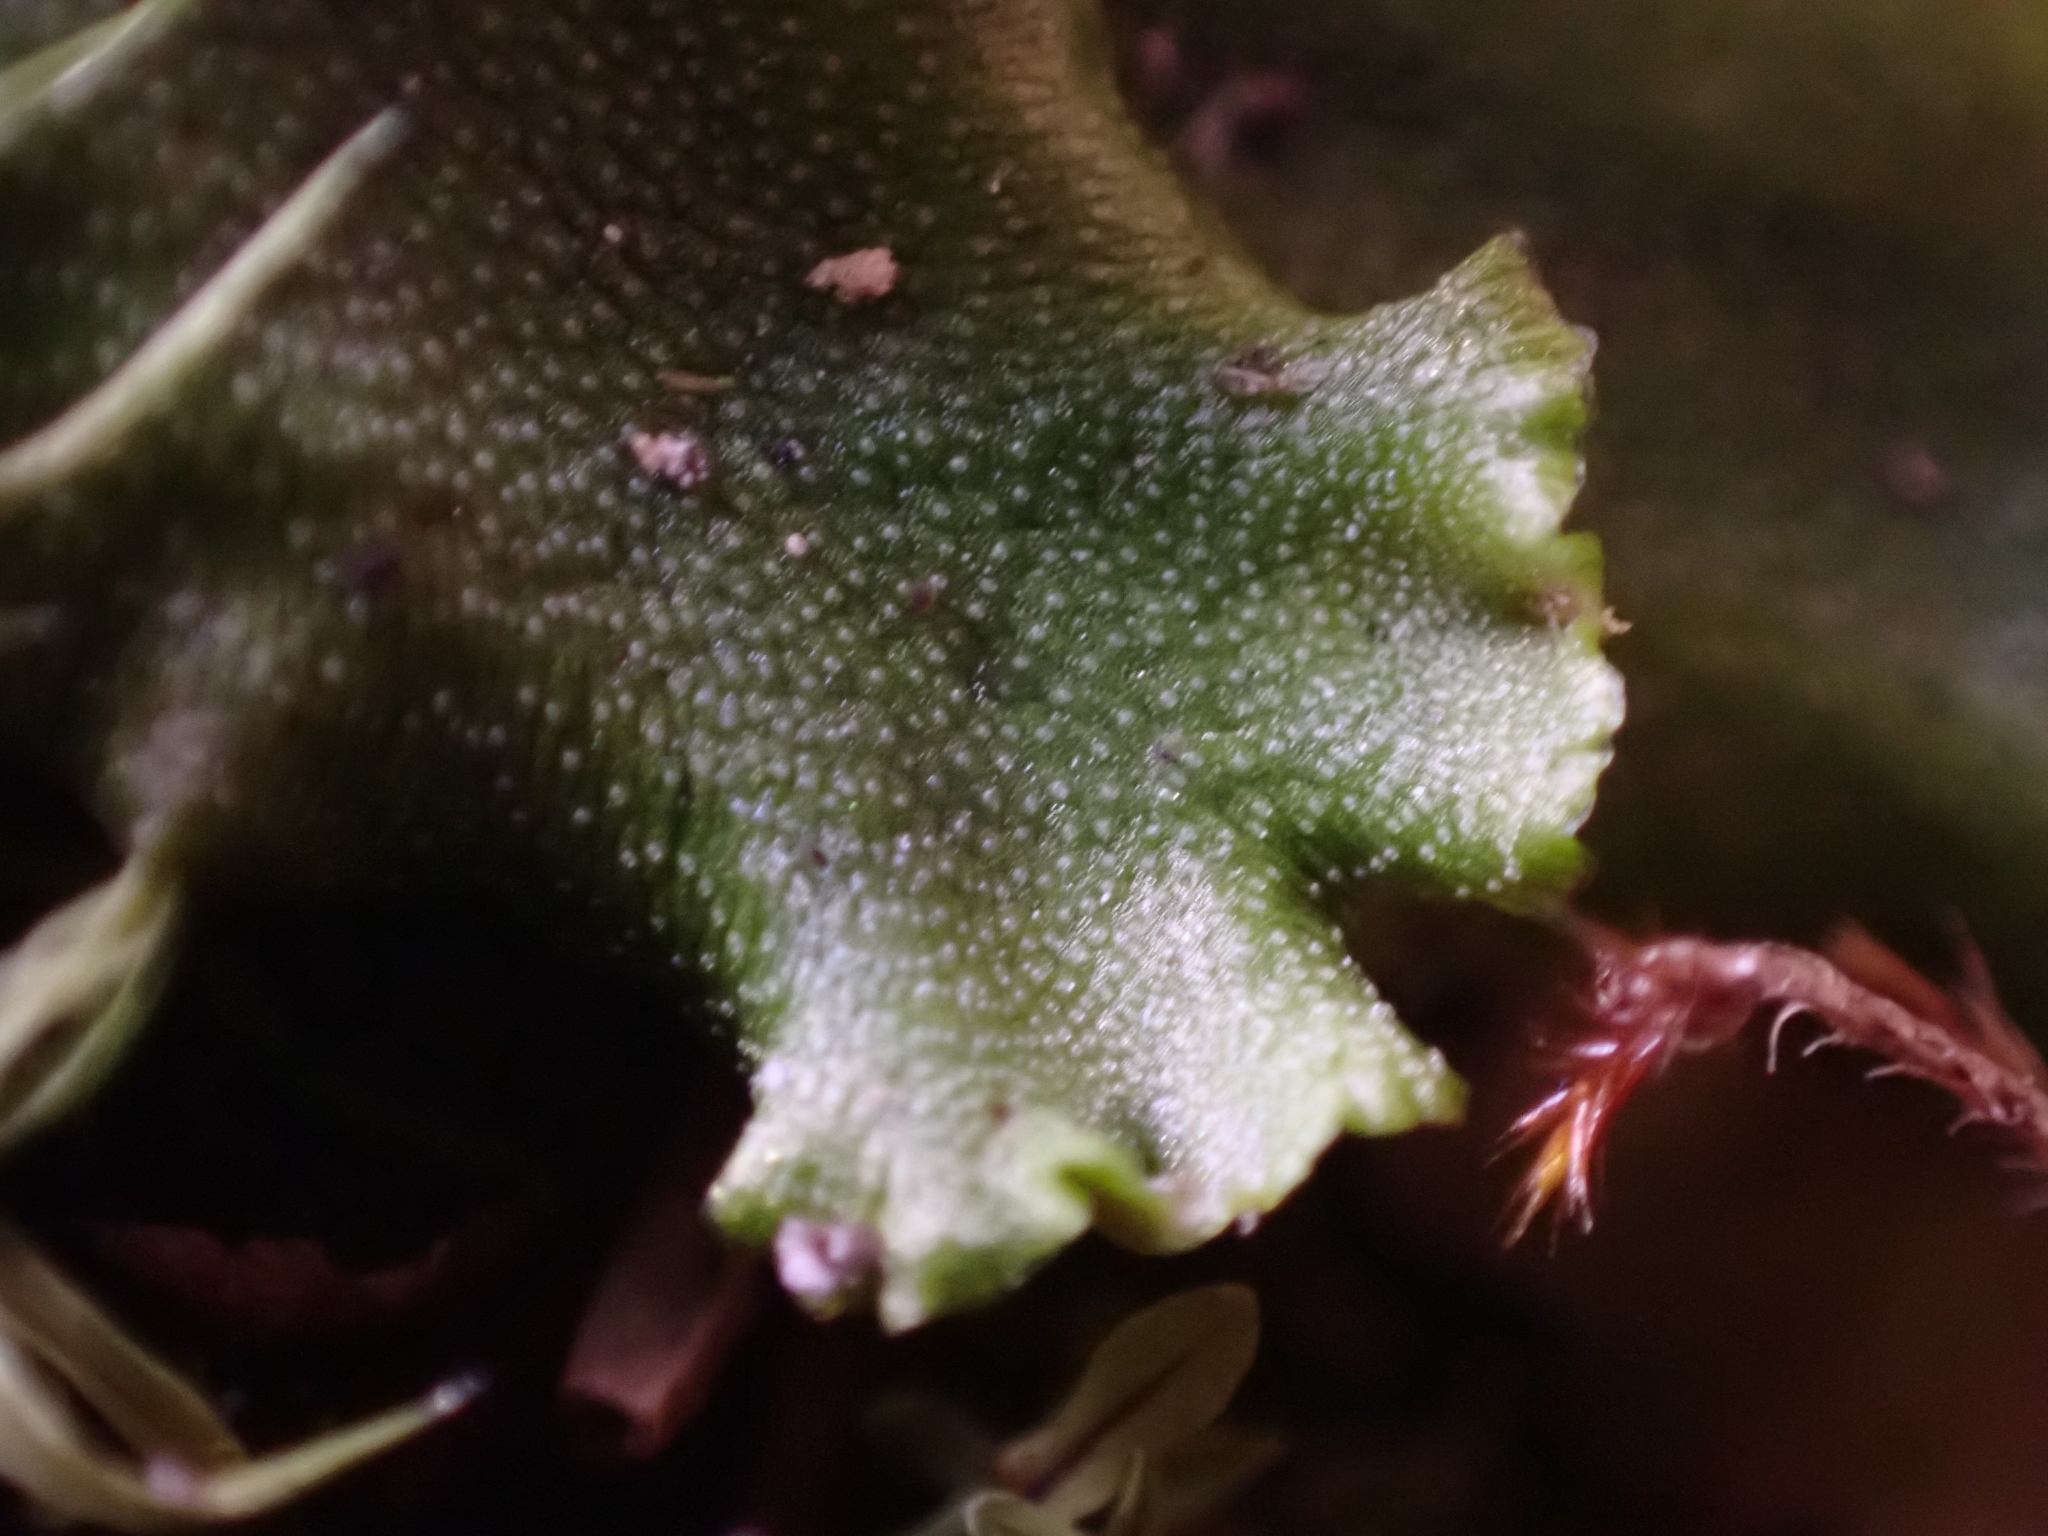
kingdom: Plantae
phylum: Marchantiophyta
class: Marchantiopsida
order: Marchantiales
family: Marchantiaceae
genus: Marchantia
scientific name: Marchantia quadrata
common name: Narrow mushroom-headed liverwort
